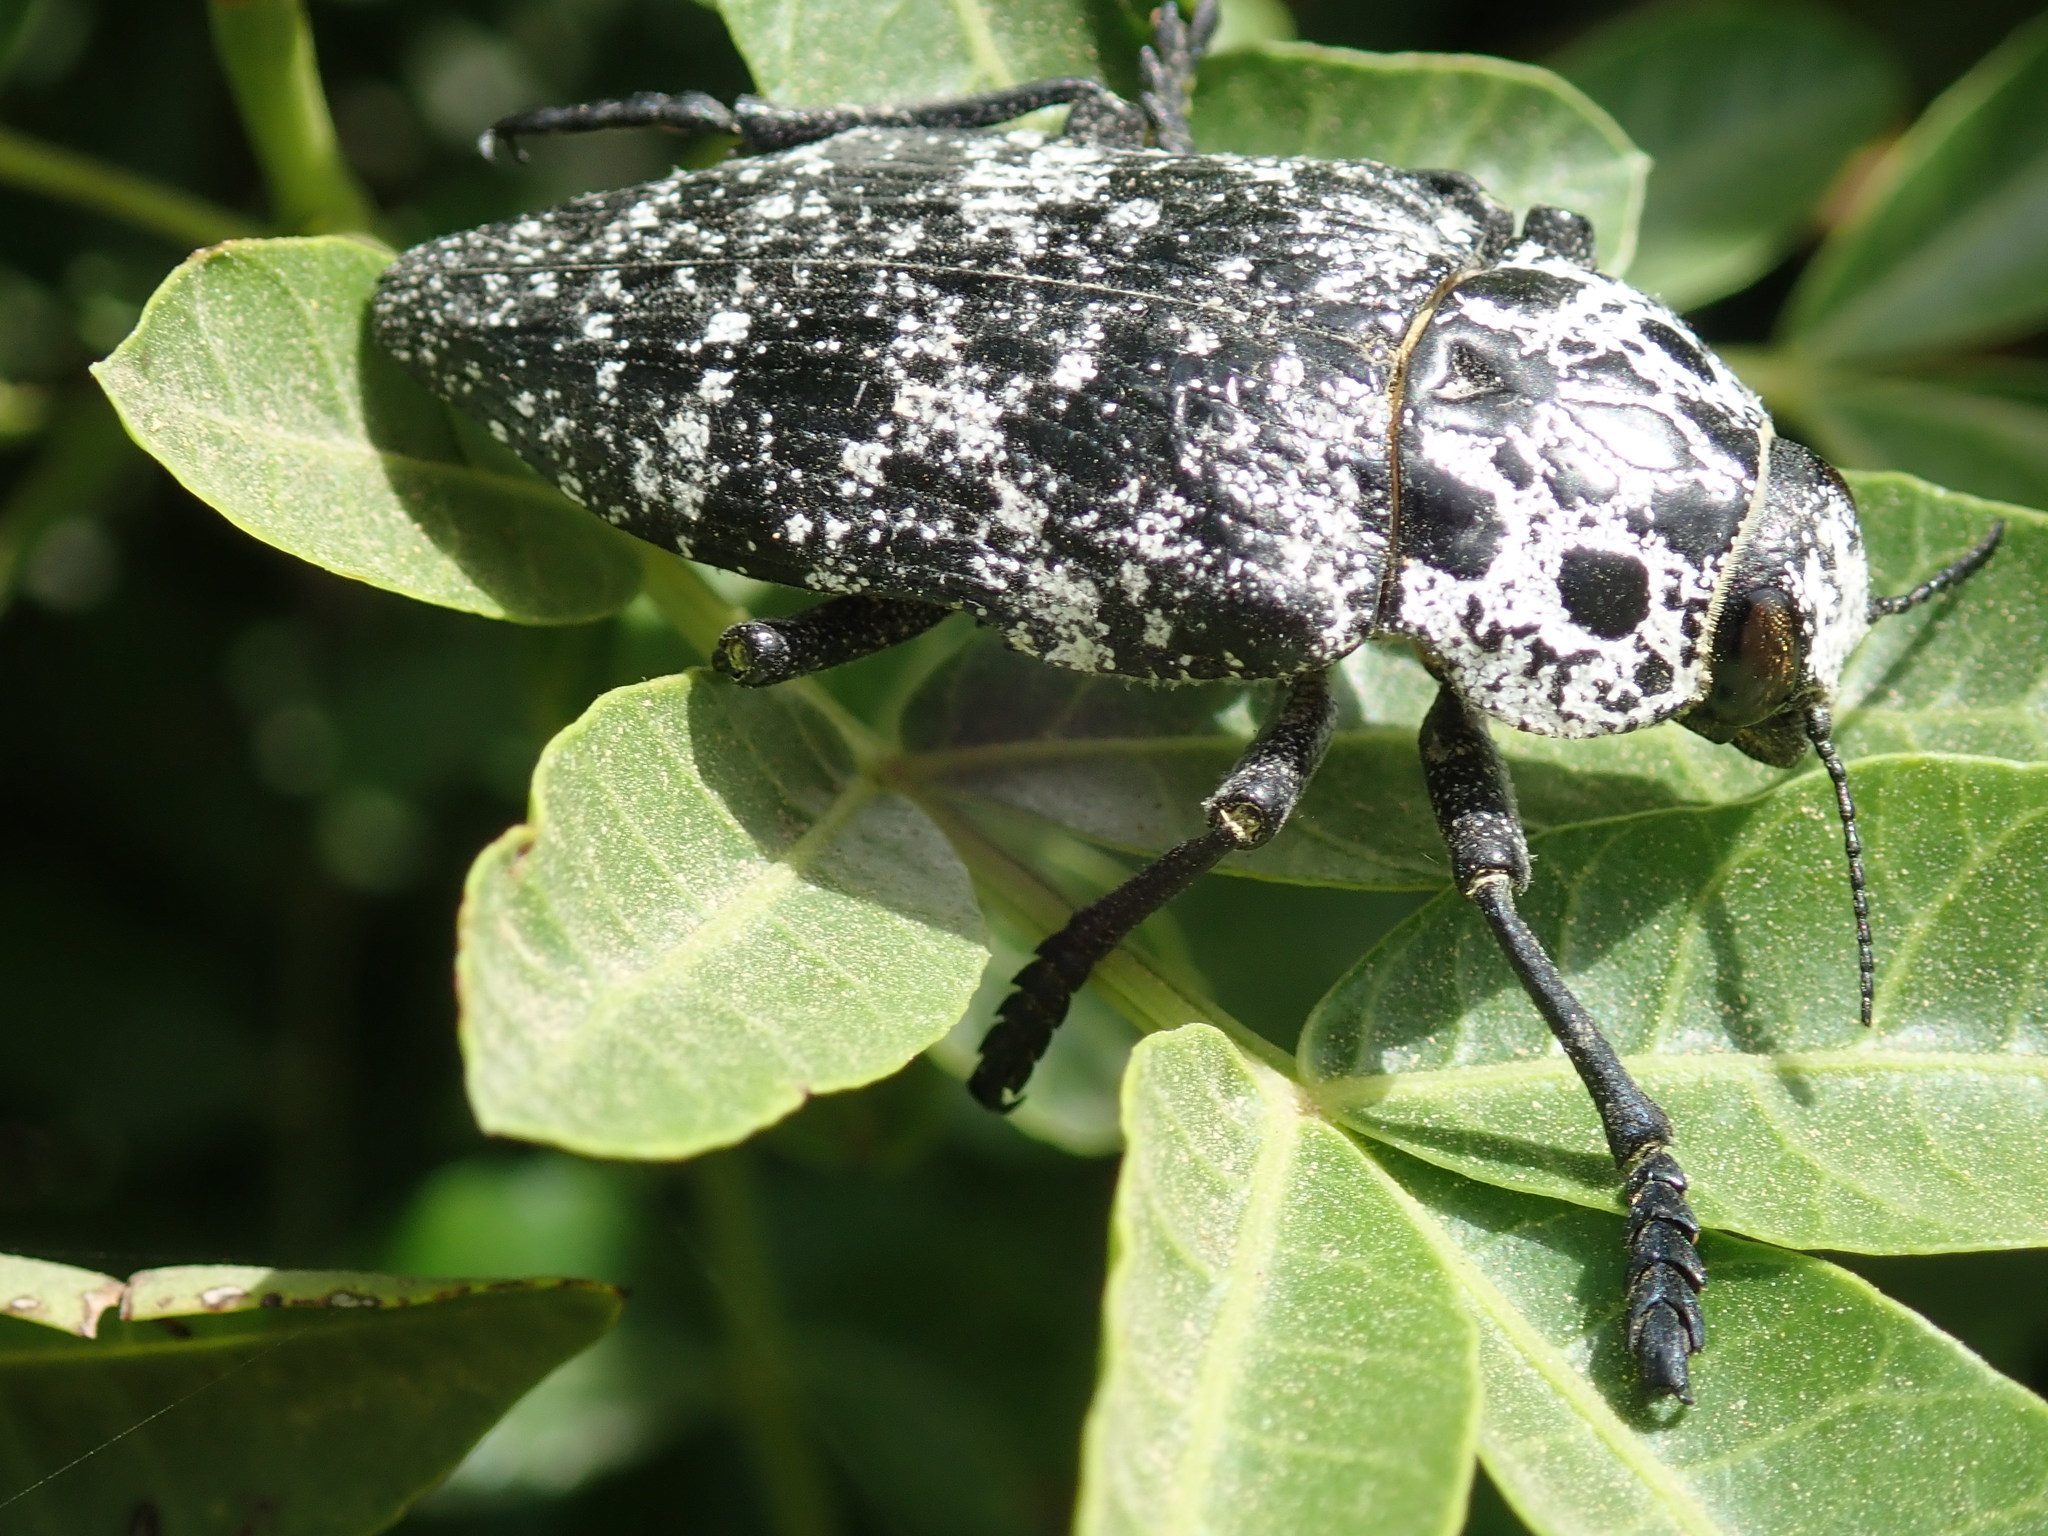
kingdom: Animalia
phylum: Arthropoda
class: Insecta
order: Coleoptera
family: Buprestidae
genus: Capnodis
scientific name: Capnodis cariosa
